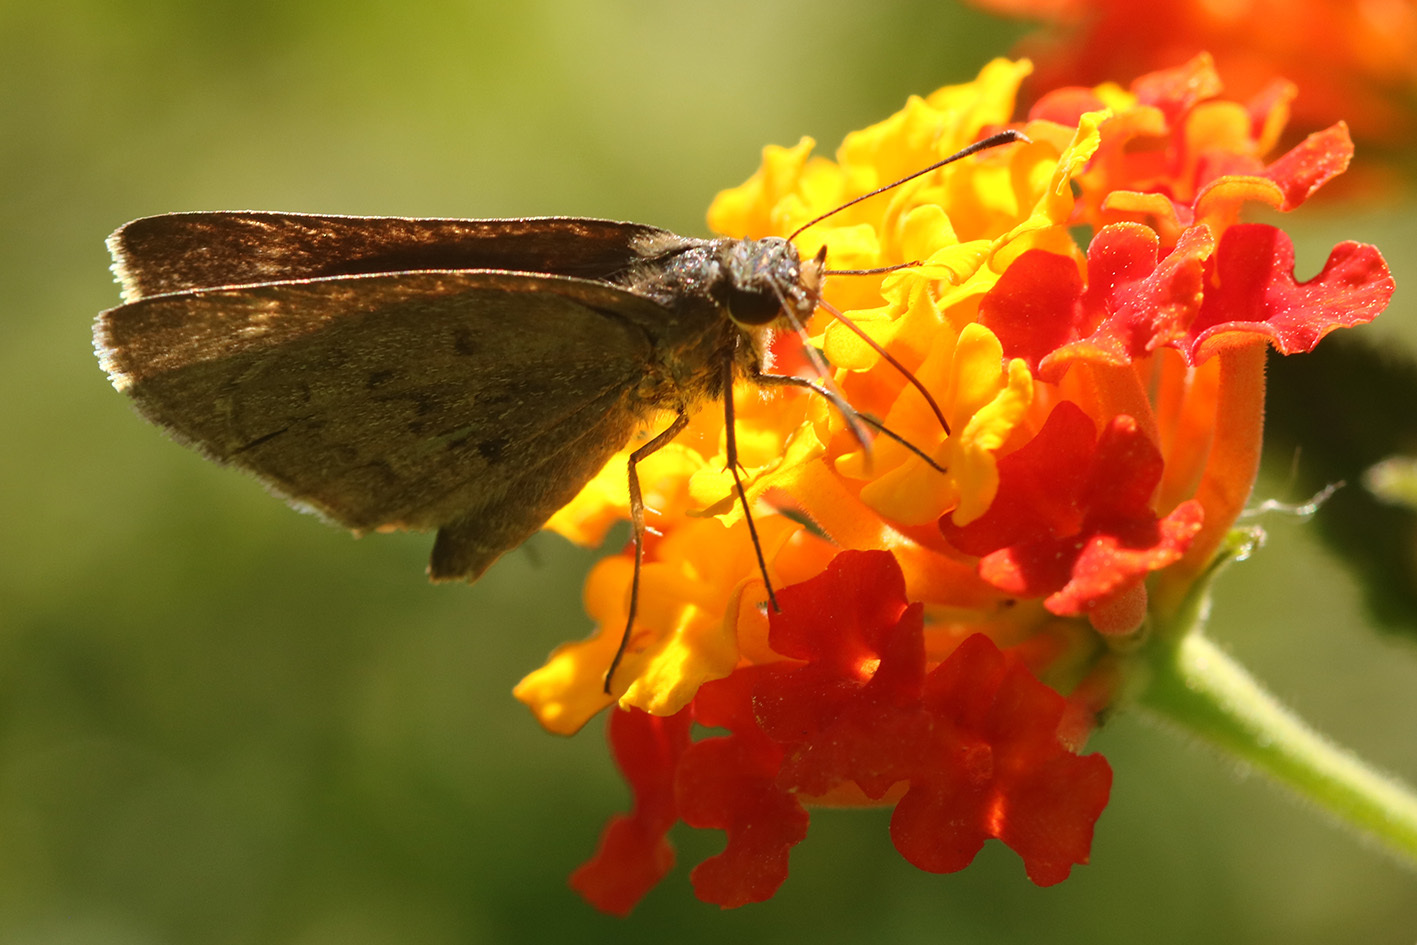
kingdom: Animalia
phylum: Arthropoda
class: Insecta
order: Lepidoptera
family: Hesperiidae
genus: Cymaenes
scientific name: Cymaenes gisca
